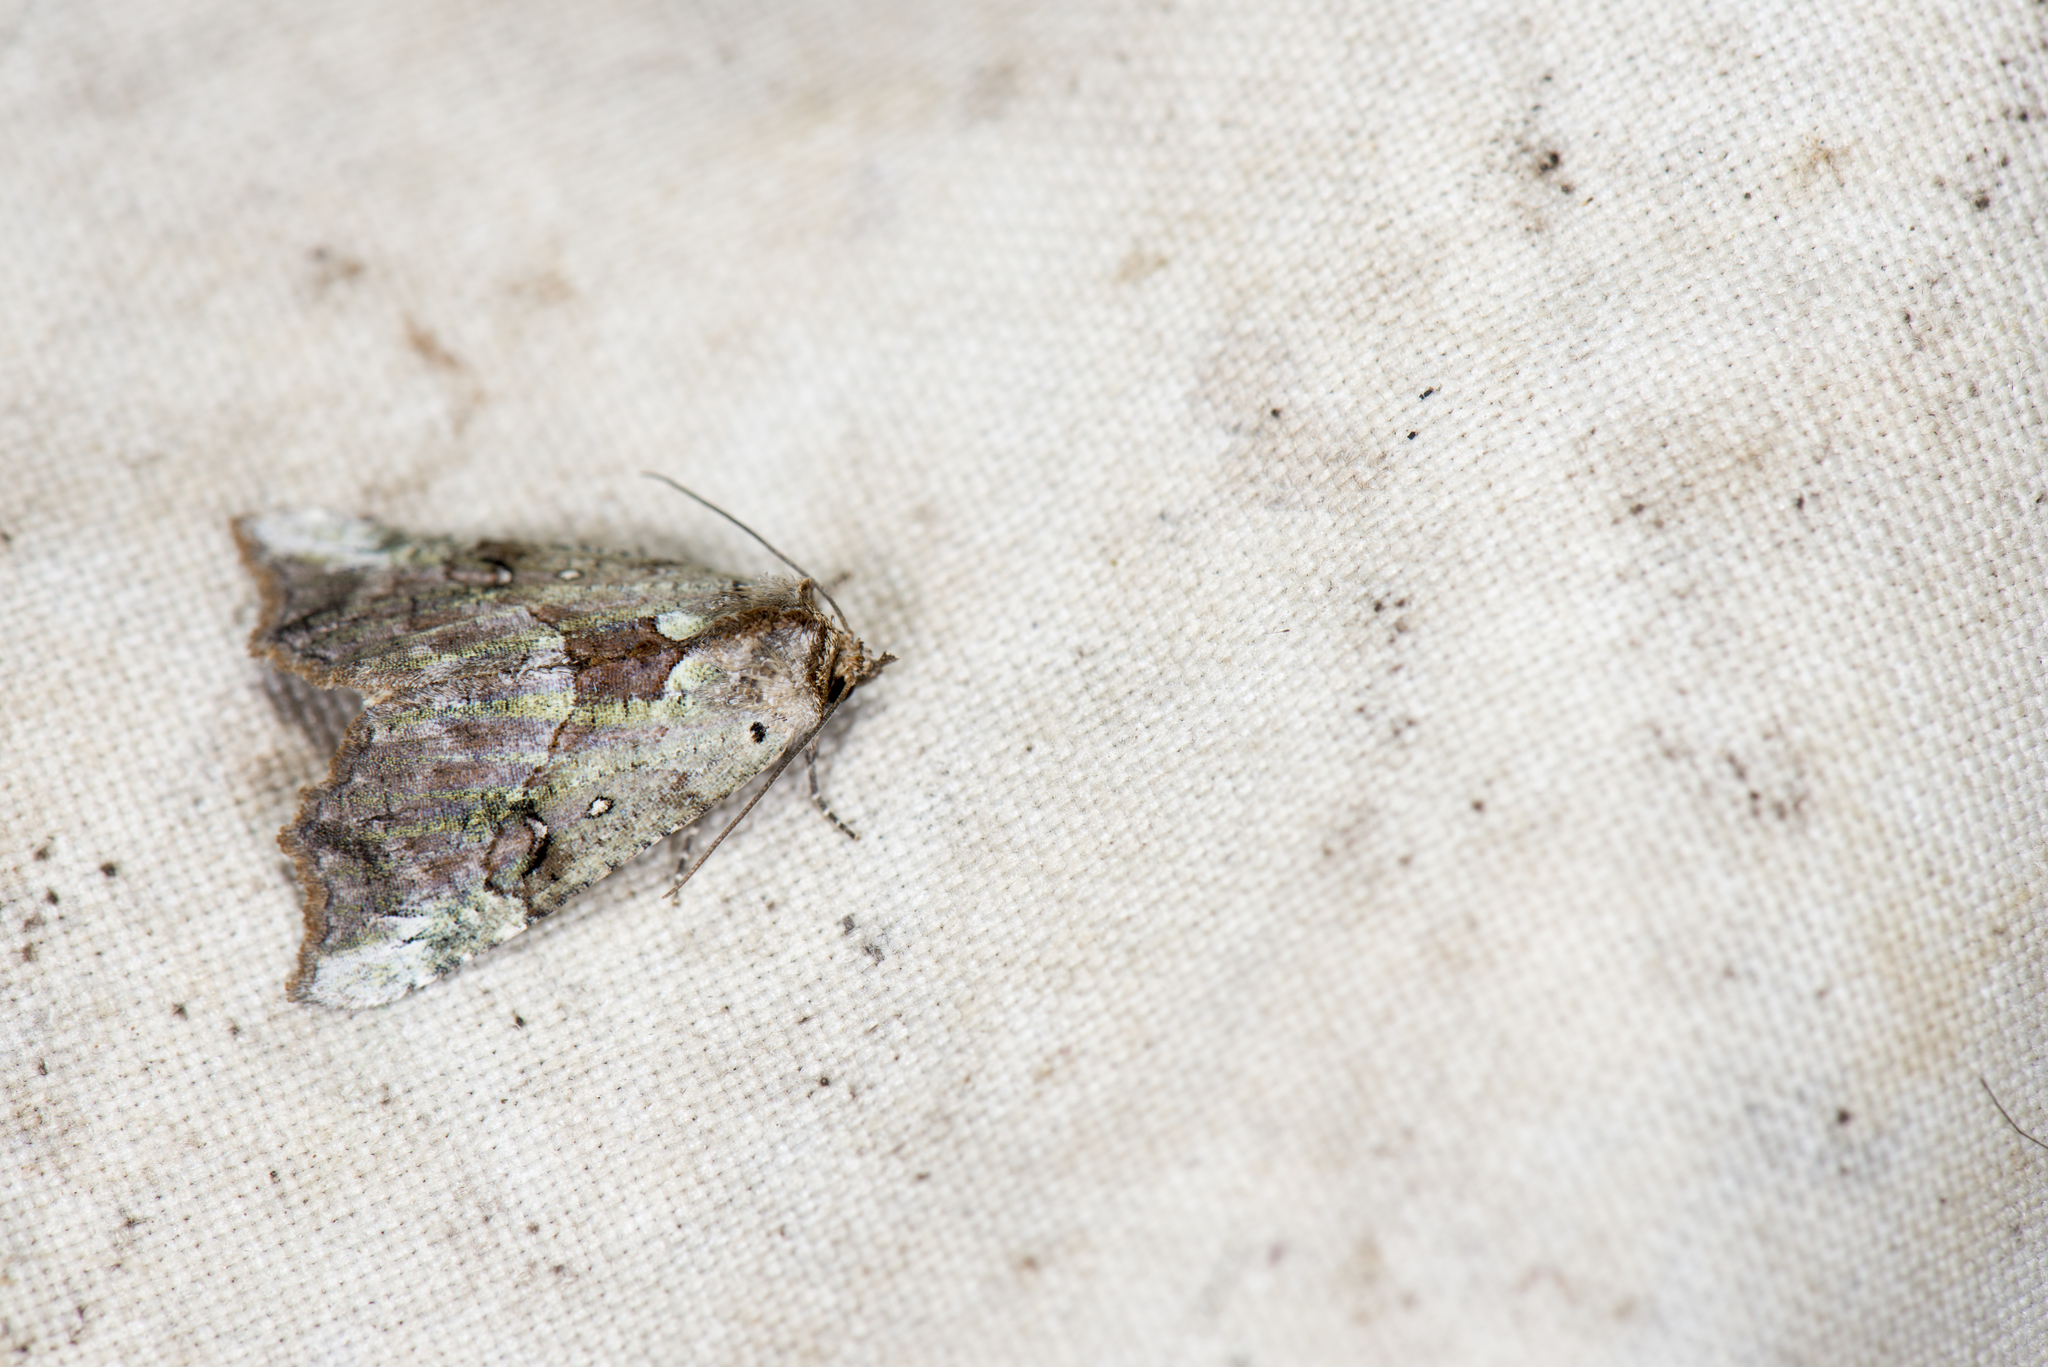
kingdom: Animalia
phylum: Arthropoda
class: Insecta
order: Lepidoptera
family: Erebidae
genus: Perciana
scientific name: Perciana taiwana
